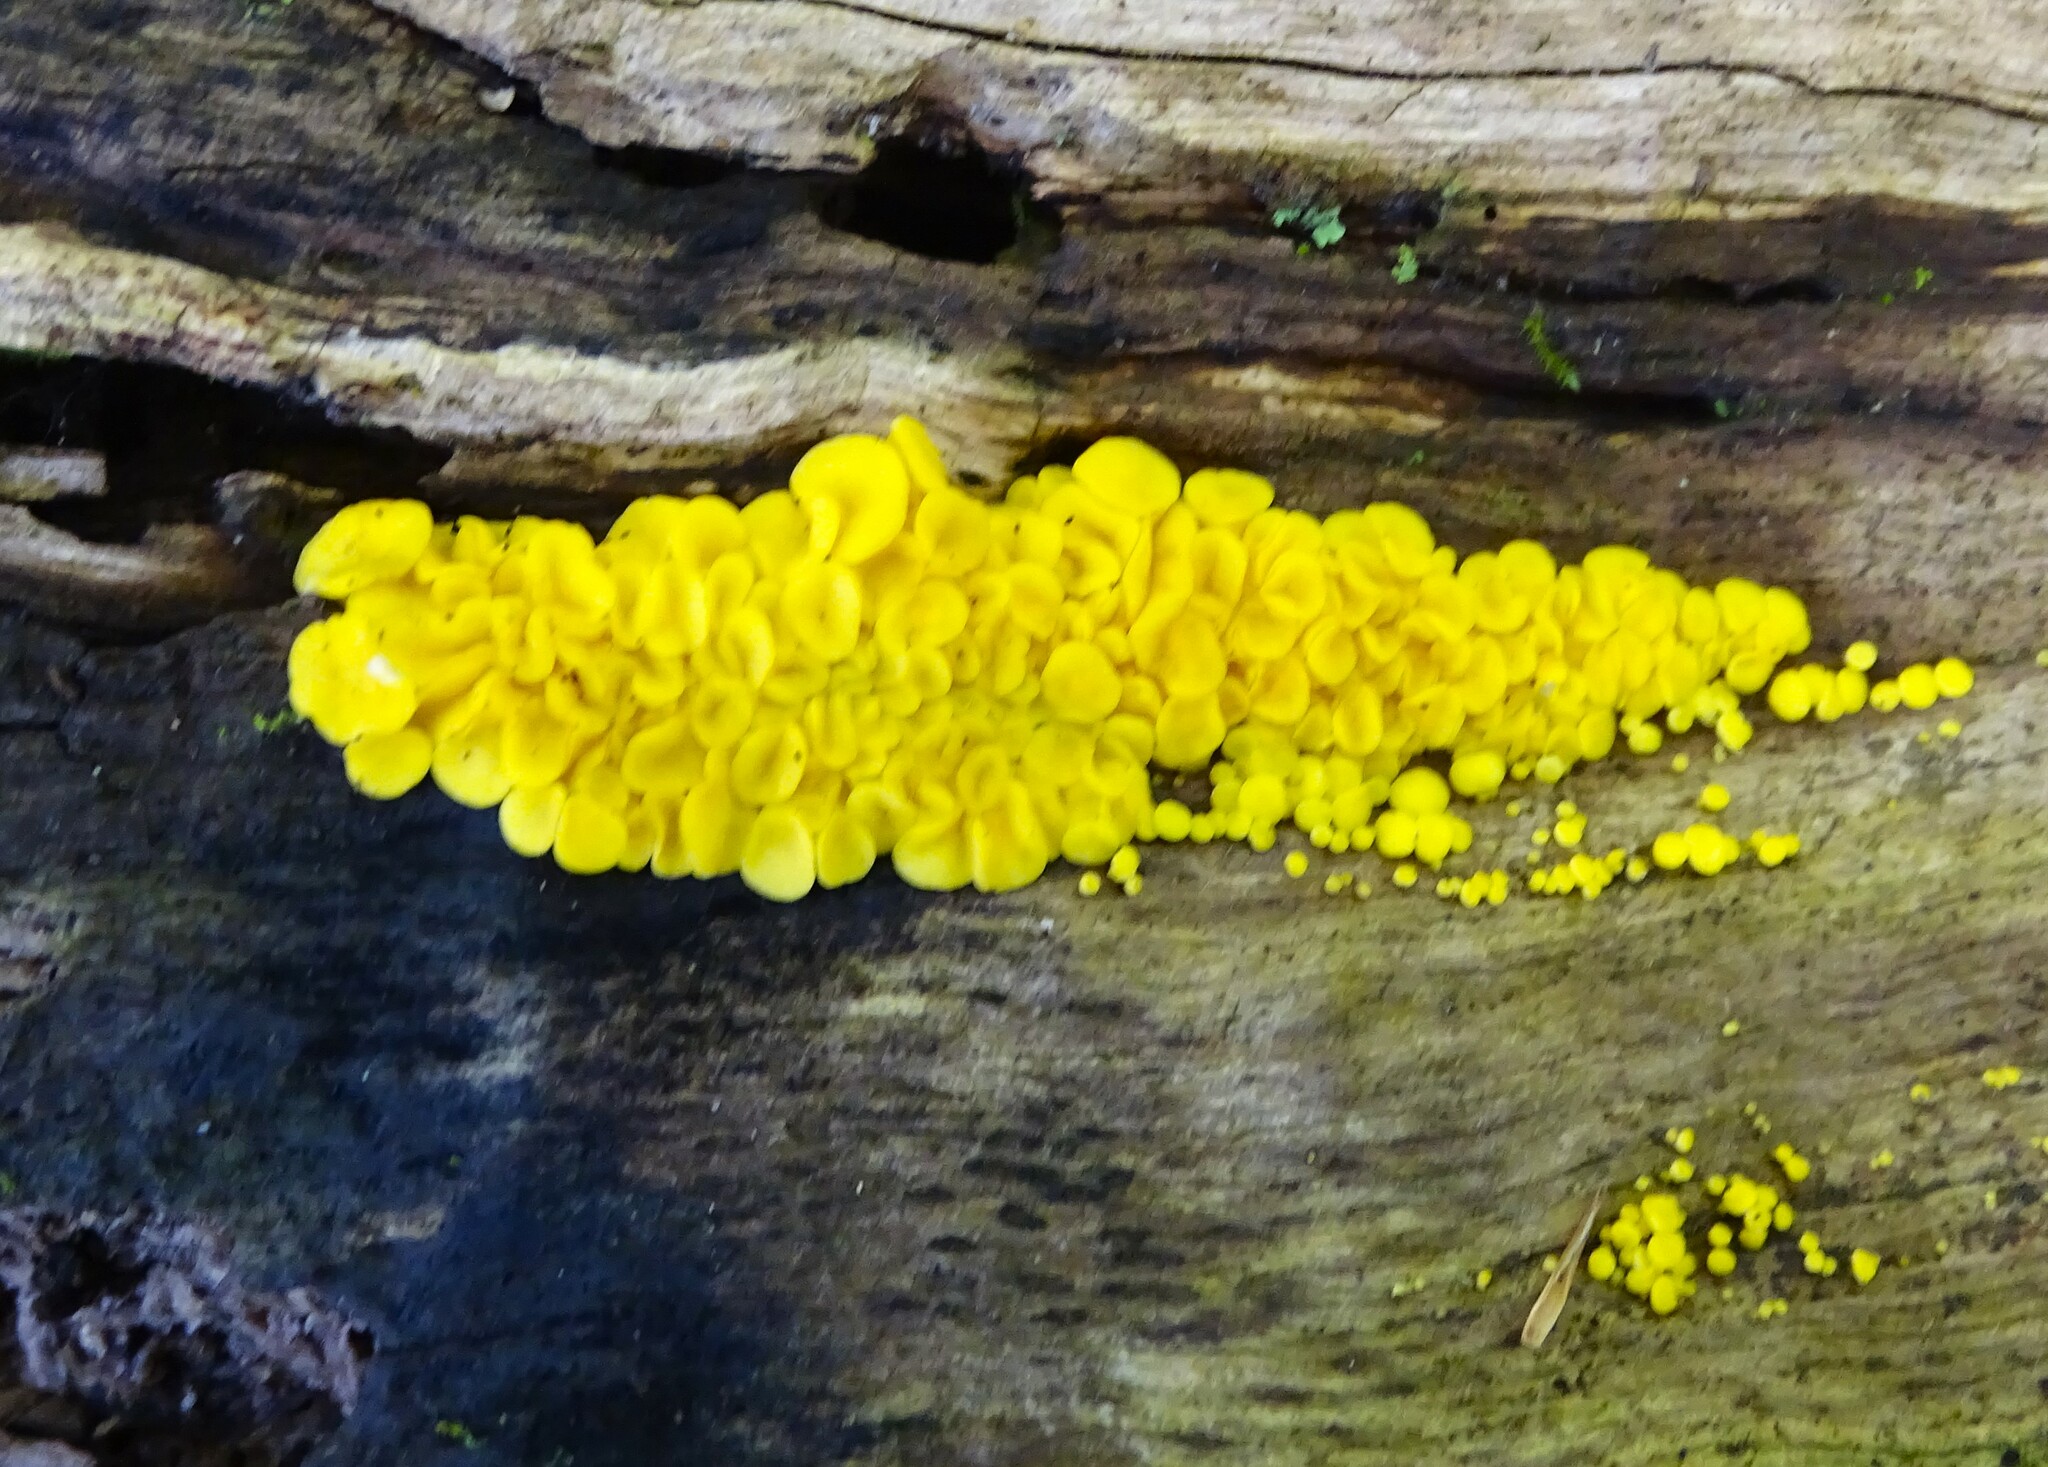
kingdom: Fungi
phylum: Ascomycota
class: Leotiomycetes
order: Helotiales
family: Pezizellaceae
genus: Calycina
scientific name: Calycina citrina
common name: Yellow fairy cups
